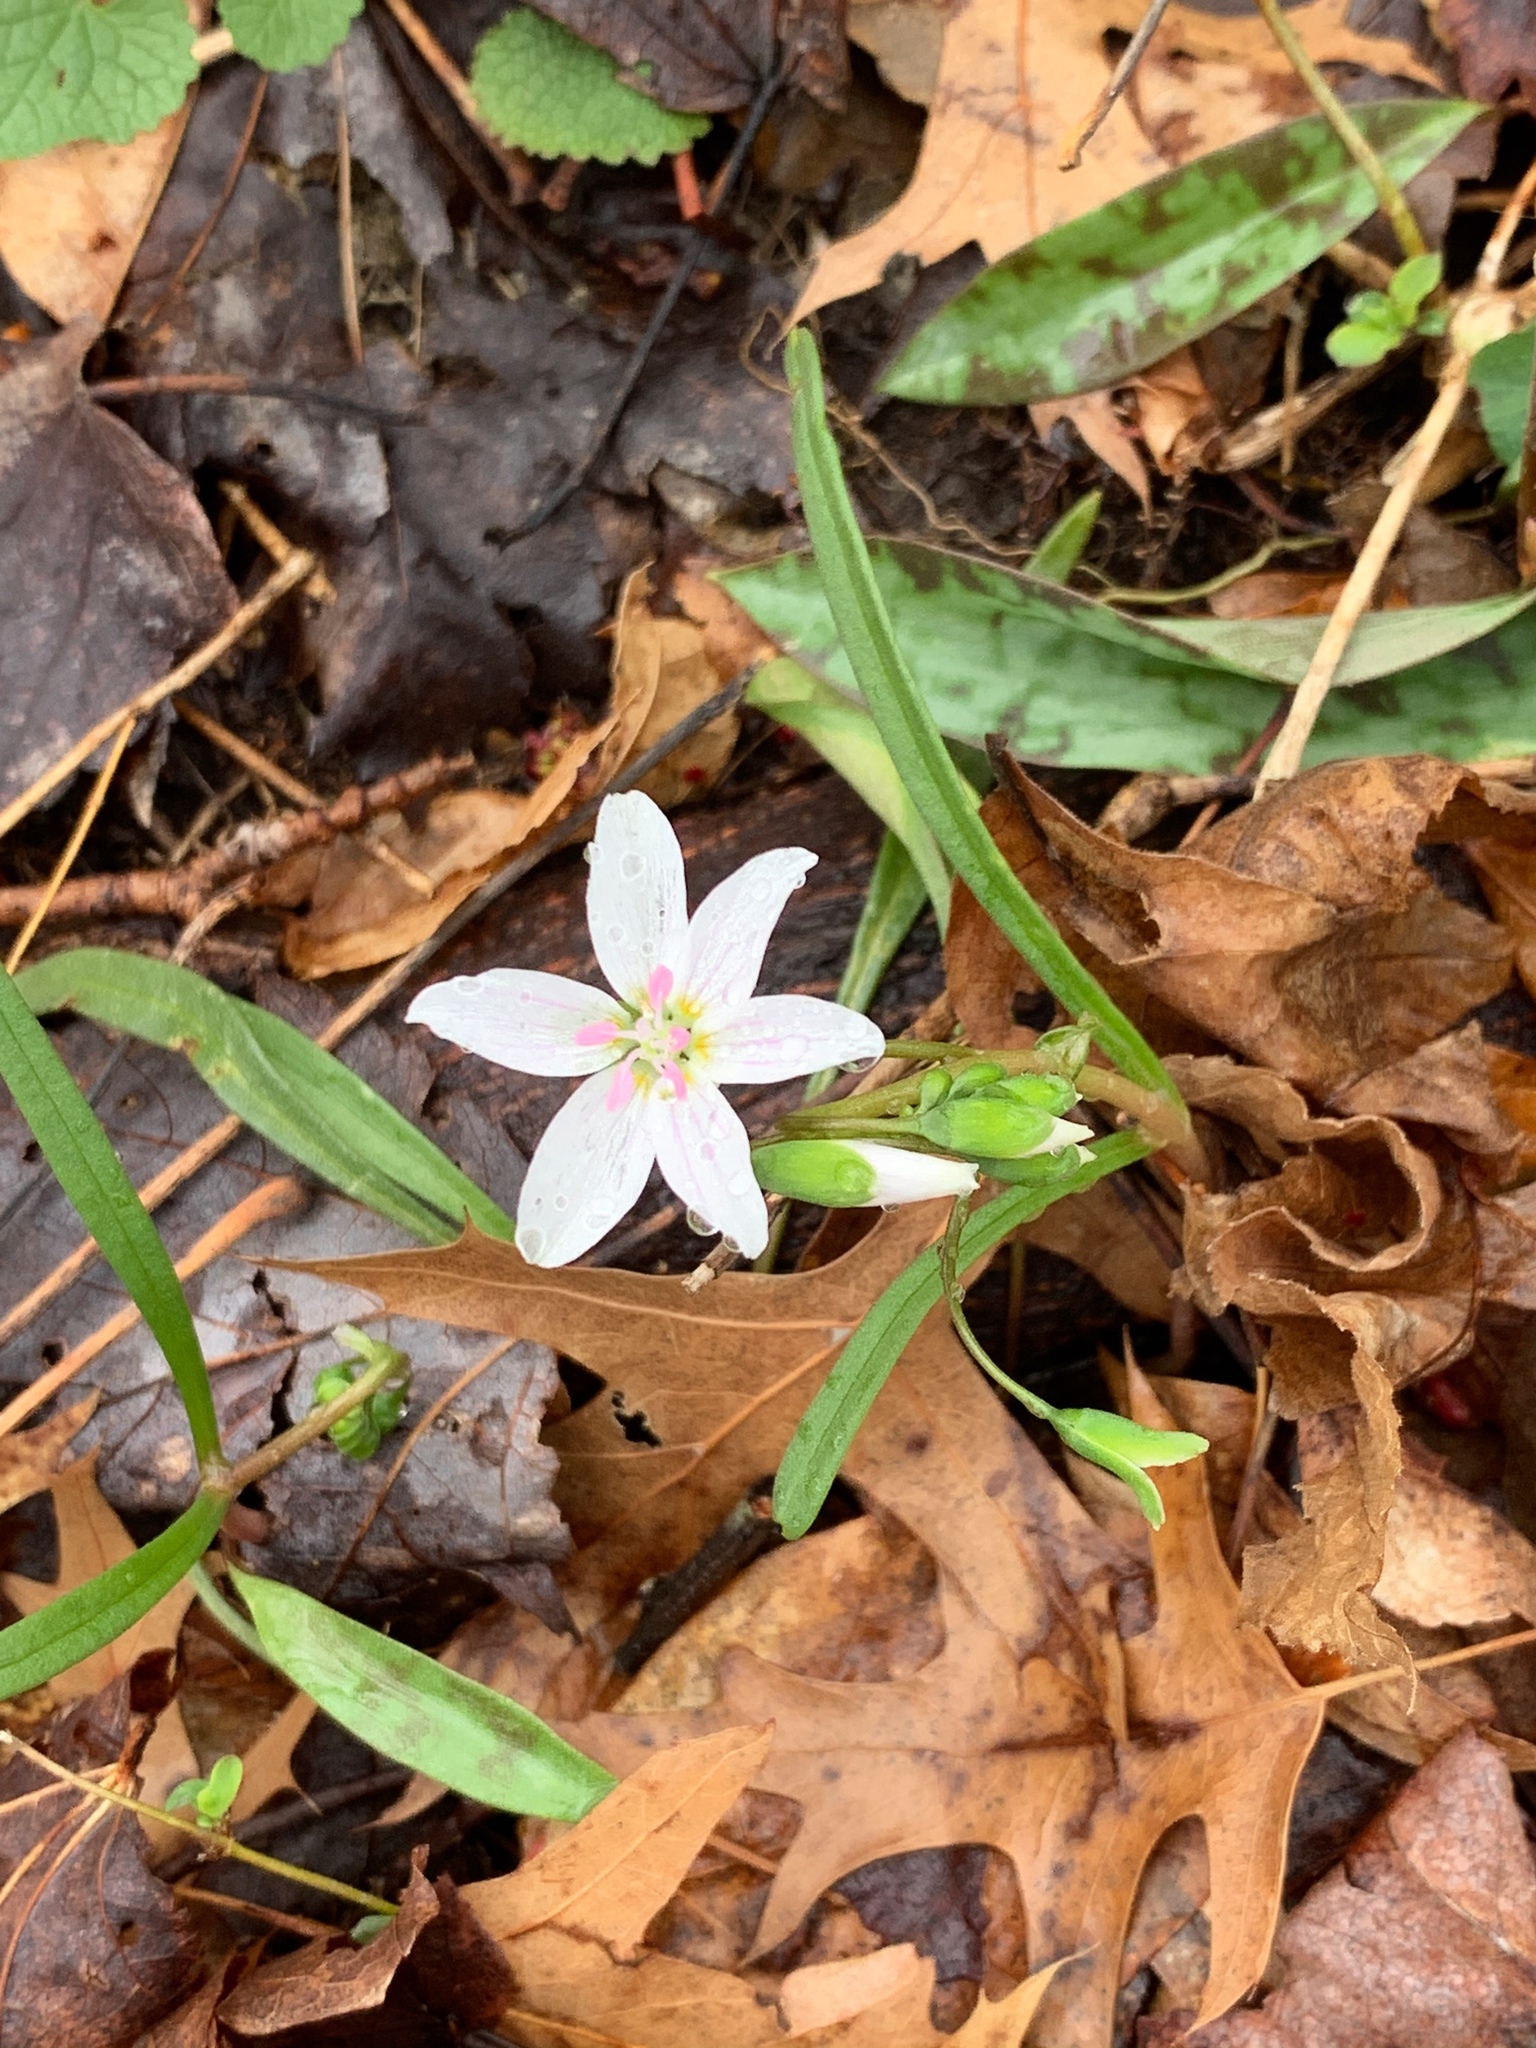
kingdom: Plantae
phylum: Tracheophyta
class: Magnoliopsida
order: Caryophyllales
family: Montiaceae
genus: Claytonia
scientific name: Claytonia virginica
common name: Virginia springbeauty
